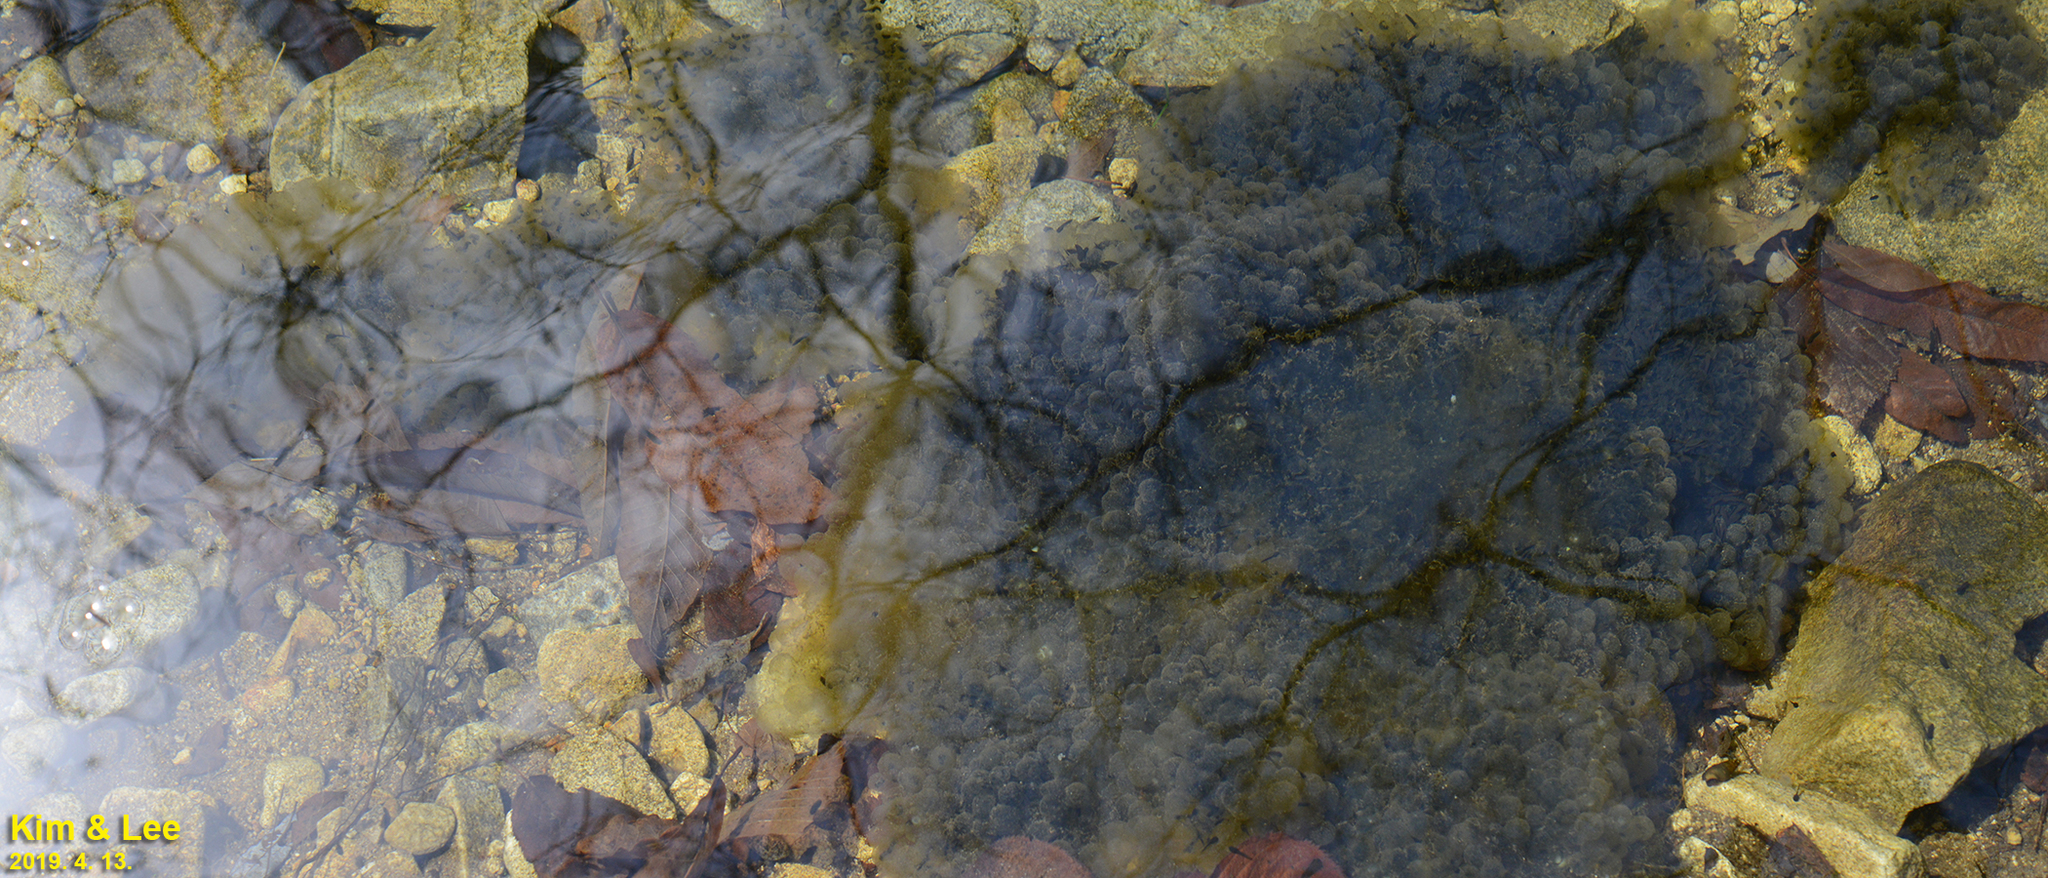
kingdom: Animalia
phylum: Chordata
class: Amphibia
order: Anura
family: Ranidae
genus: Rana
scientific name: Rana huanrenensis
